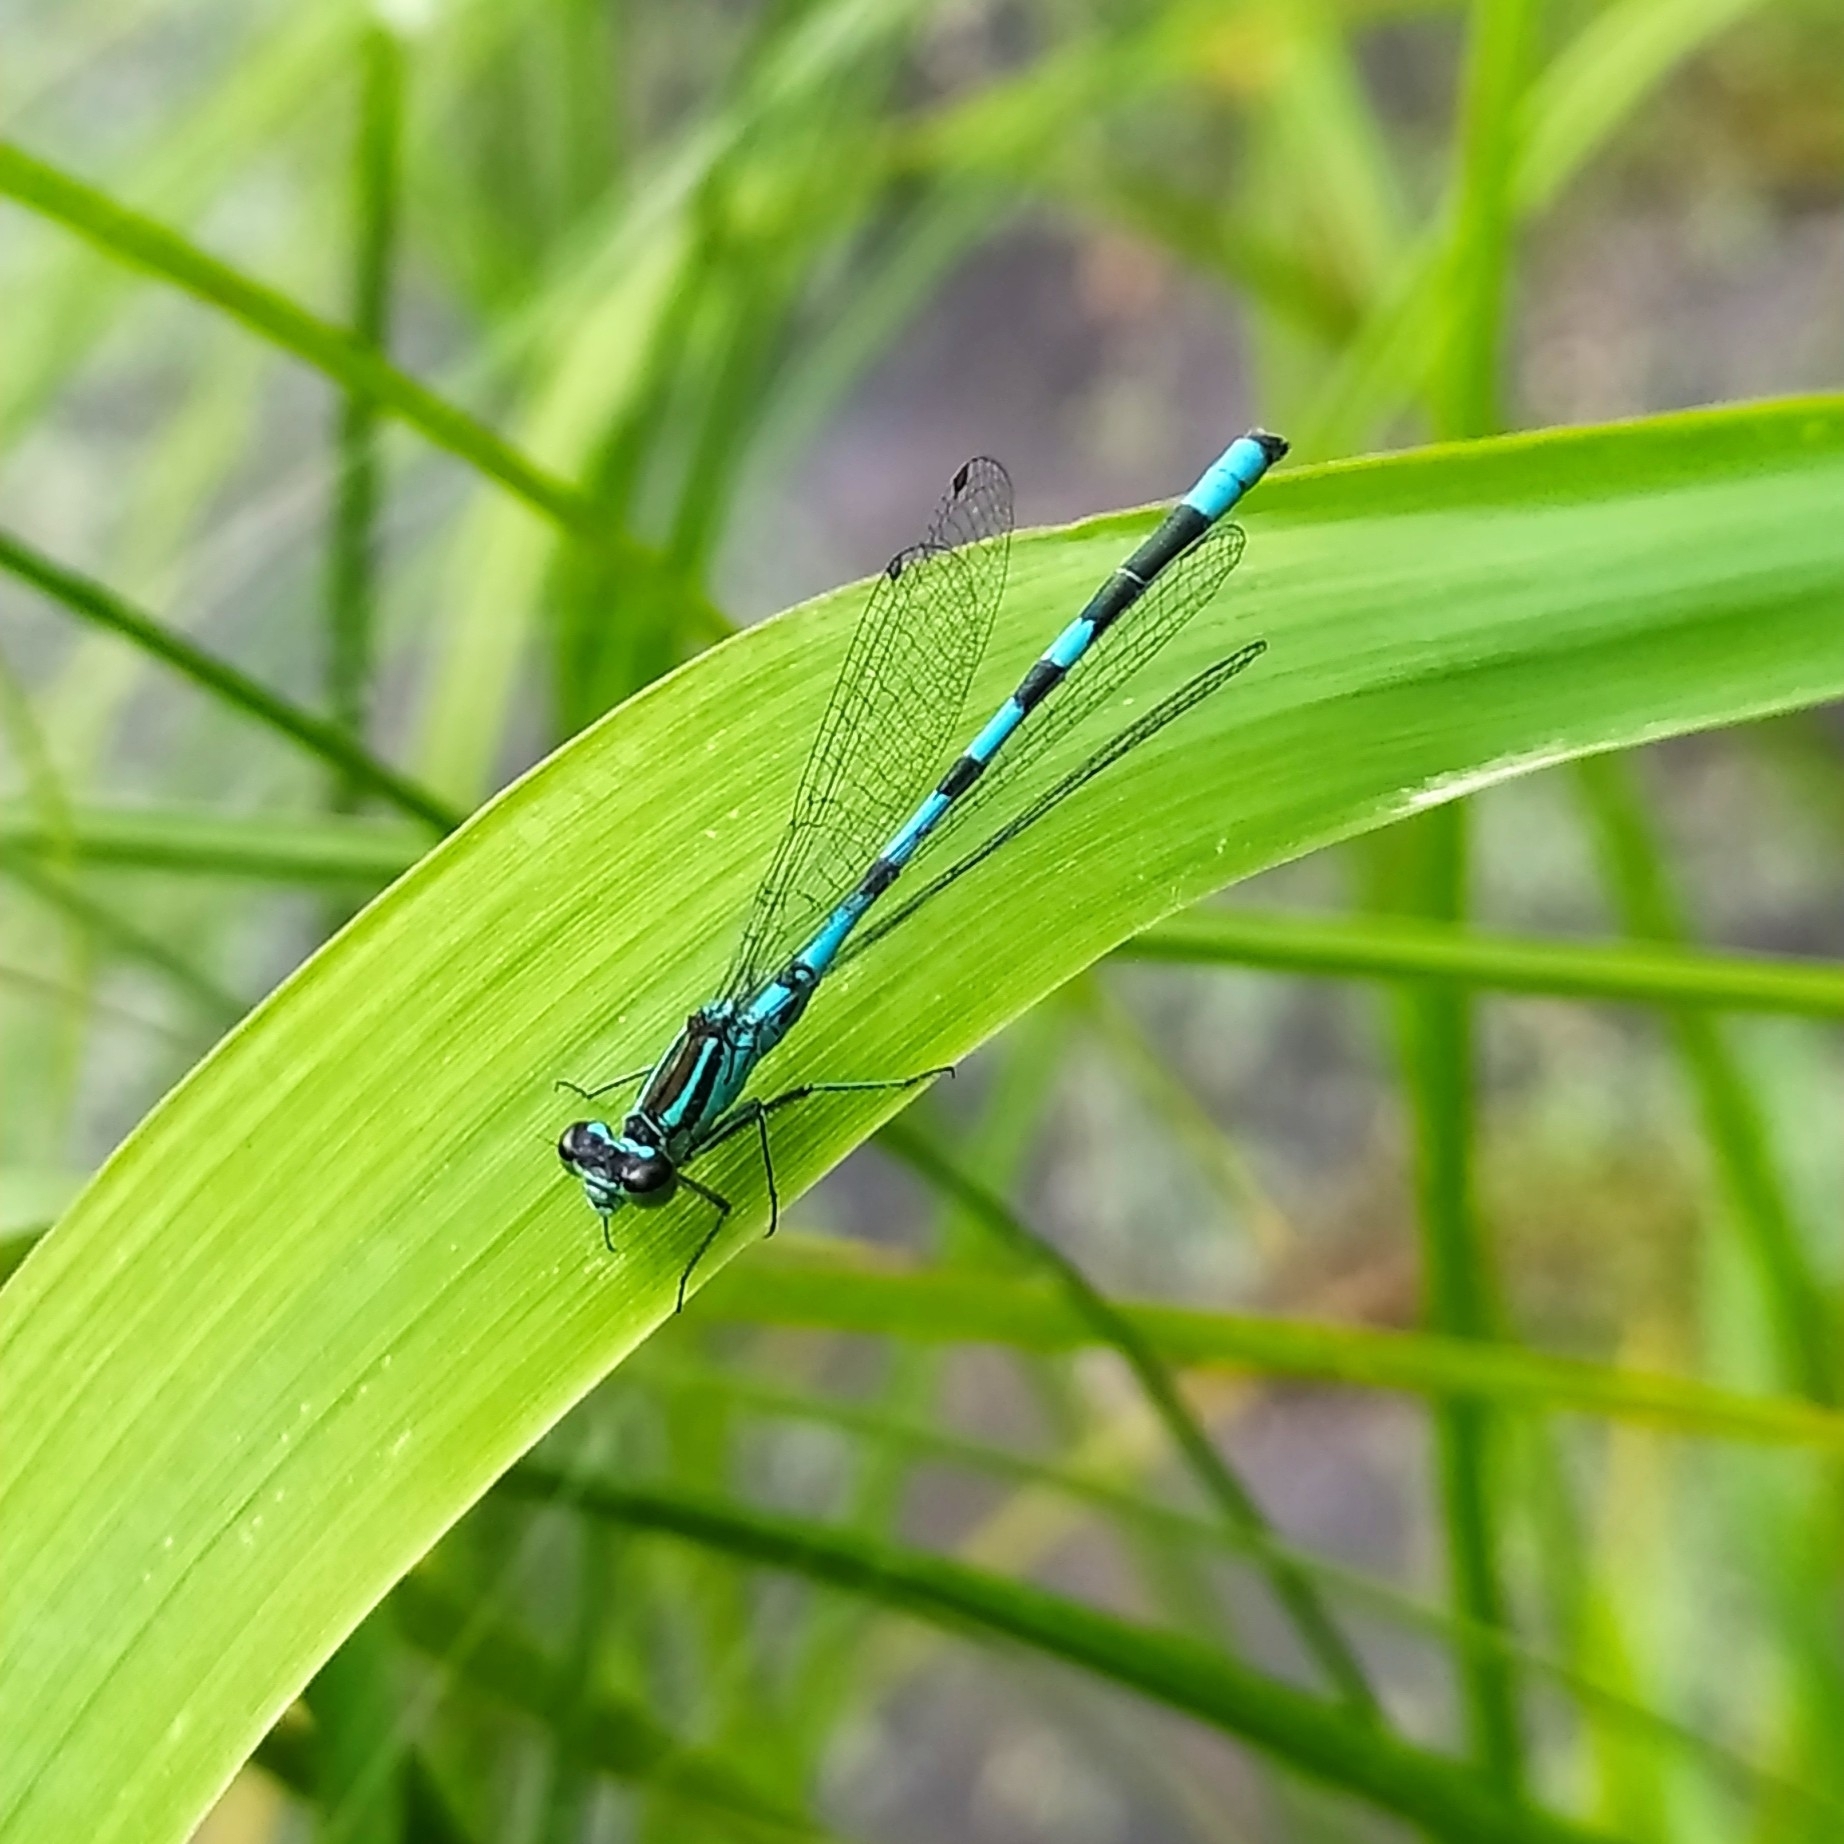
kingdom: Animalia
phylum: Arthropoda
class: Insecta
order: Odonata
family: Coenagrionidae
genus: Coenagrion
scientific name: Coenagrion hastulatum
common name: Spearhead bluet
